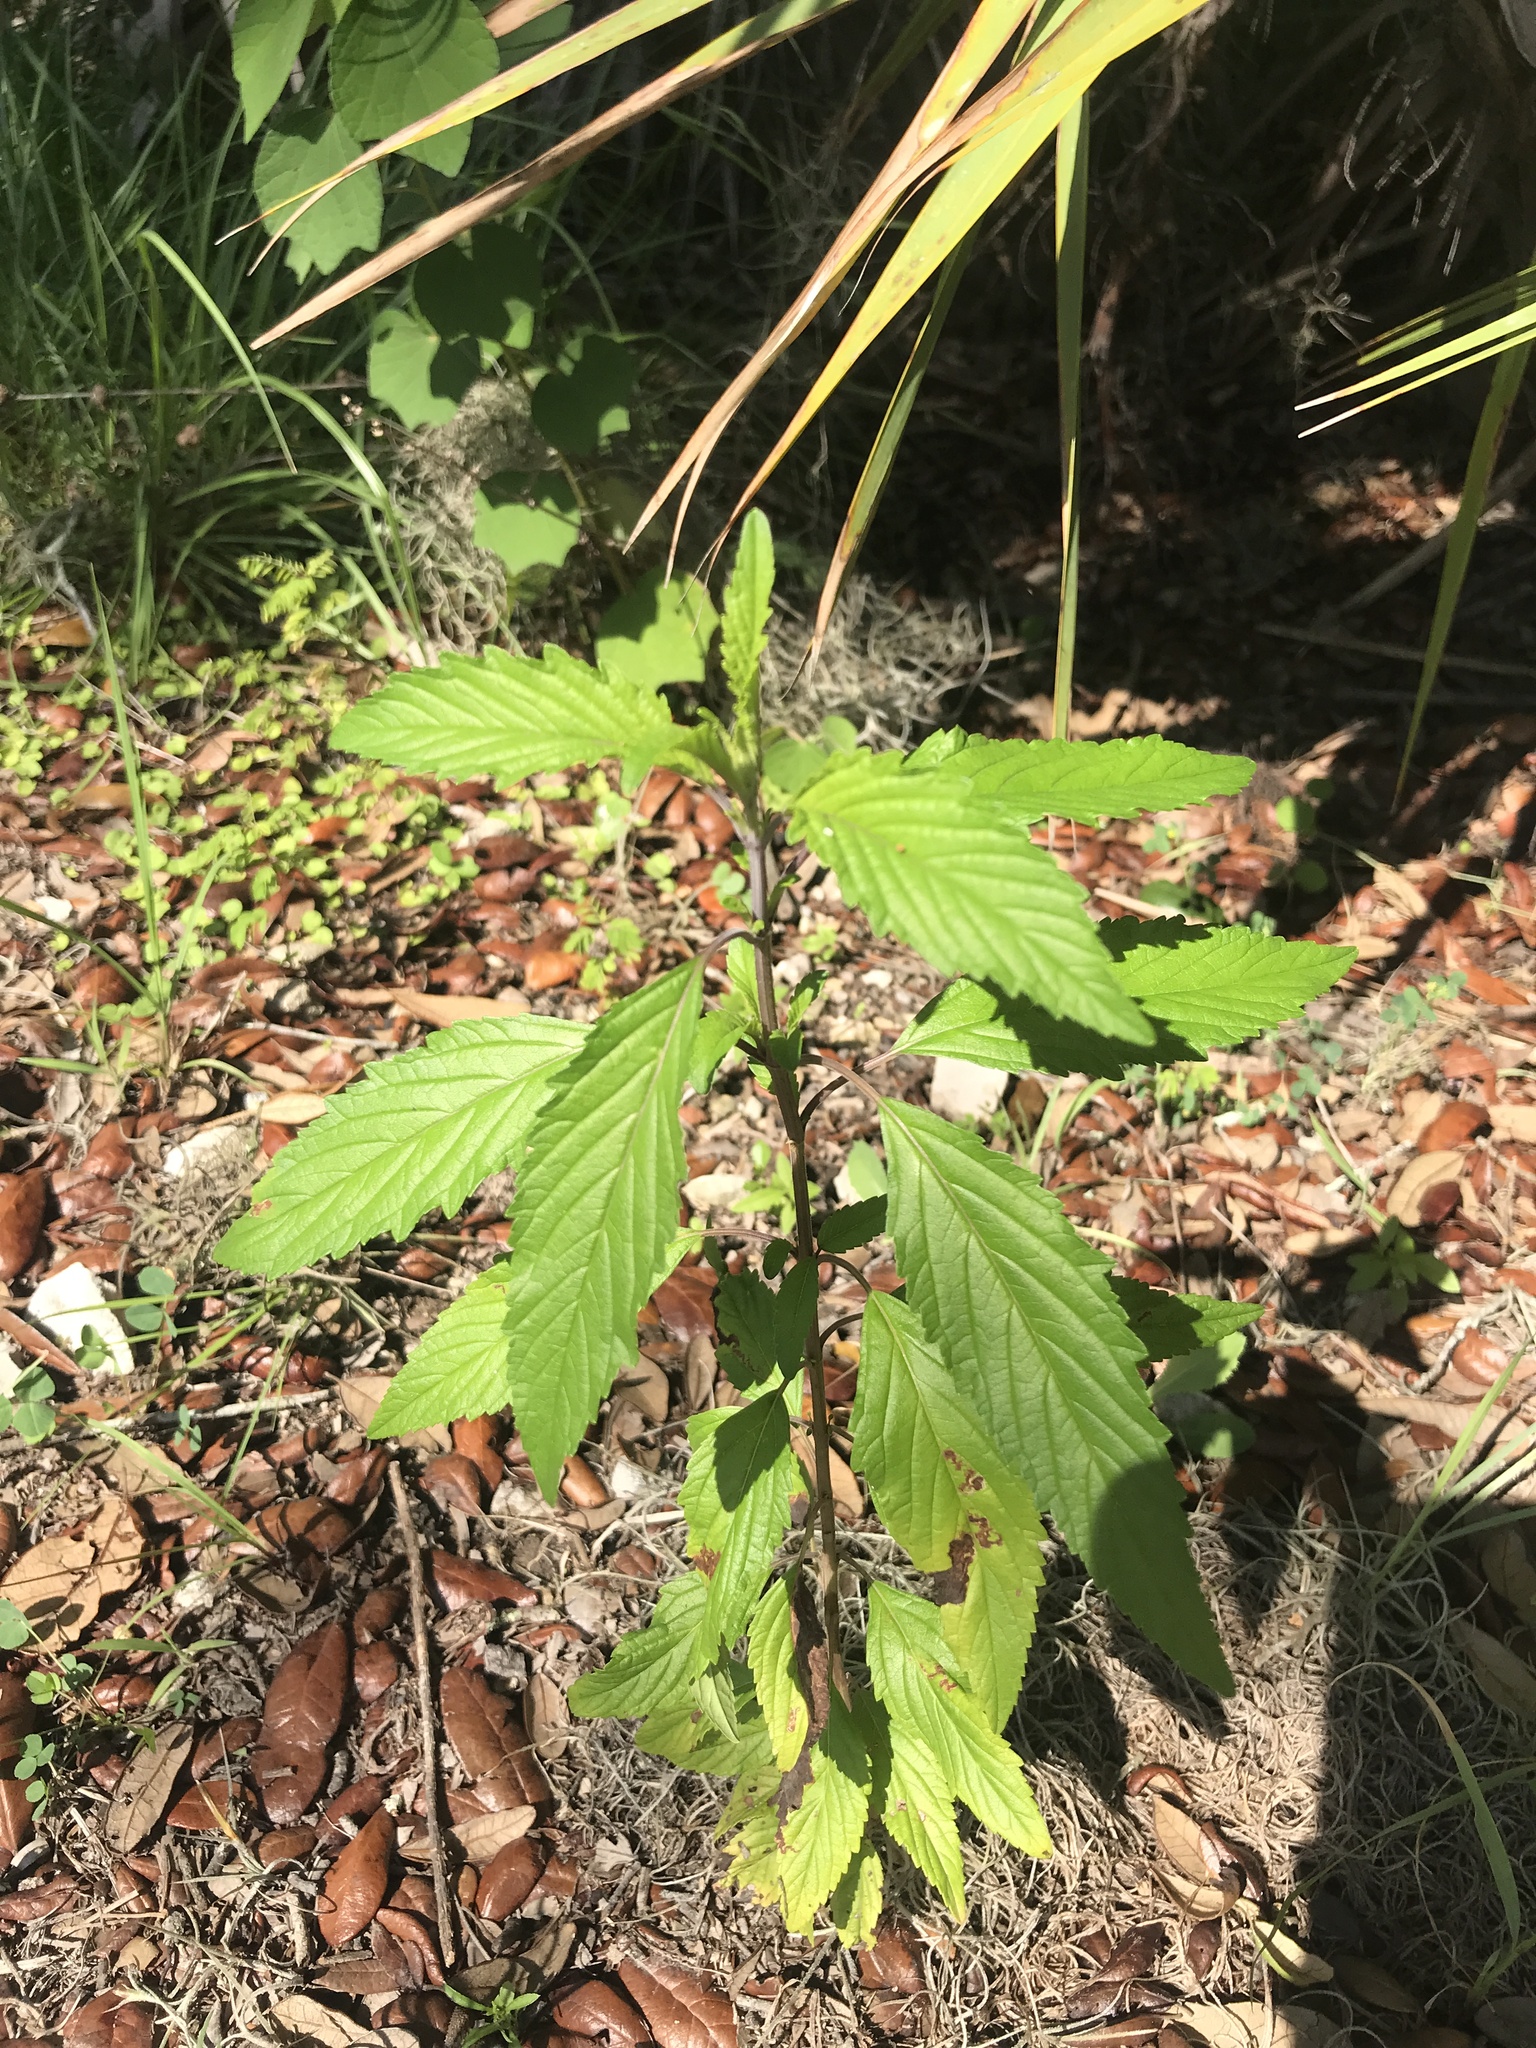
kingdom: Plantae
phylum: Tracheophyta
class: Magnoliopsida
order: Lamiales
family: Lamiaceae
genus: Condea
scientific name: Condea verticillata
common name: John charles
